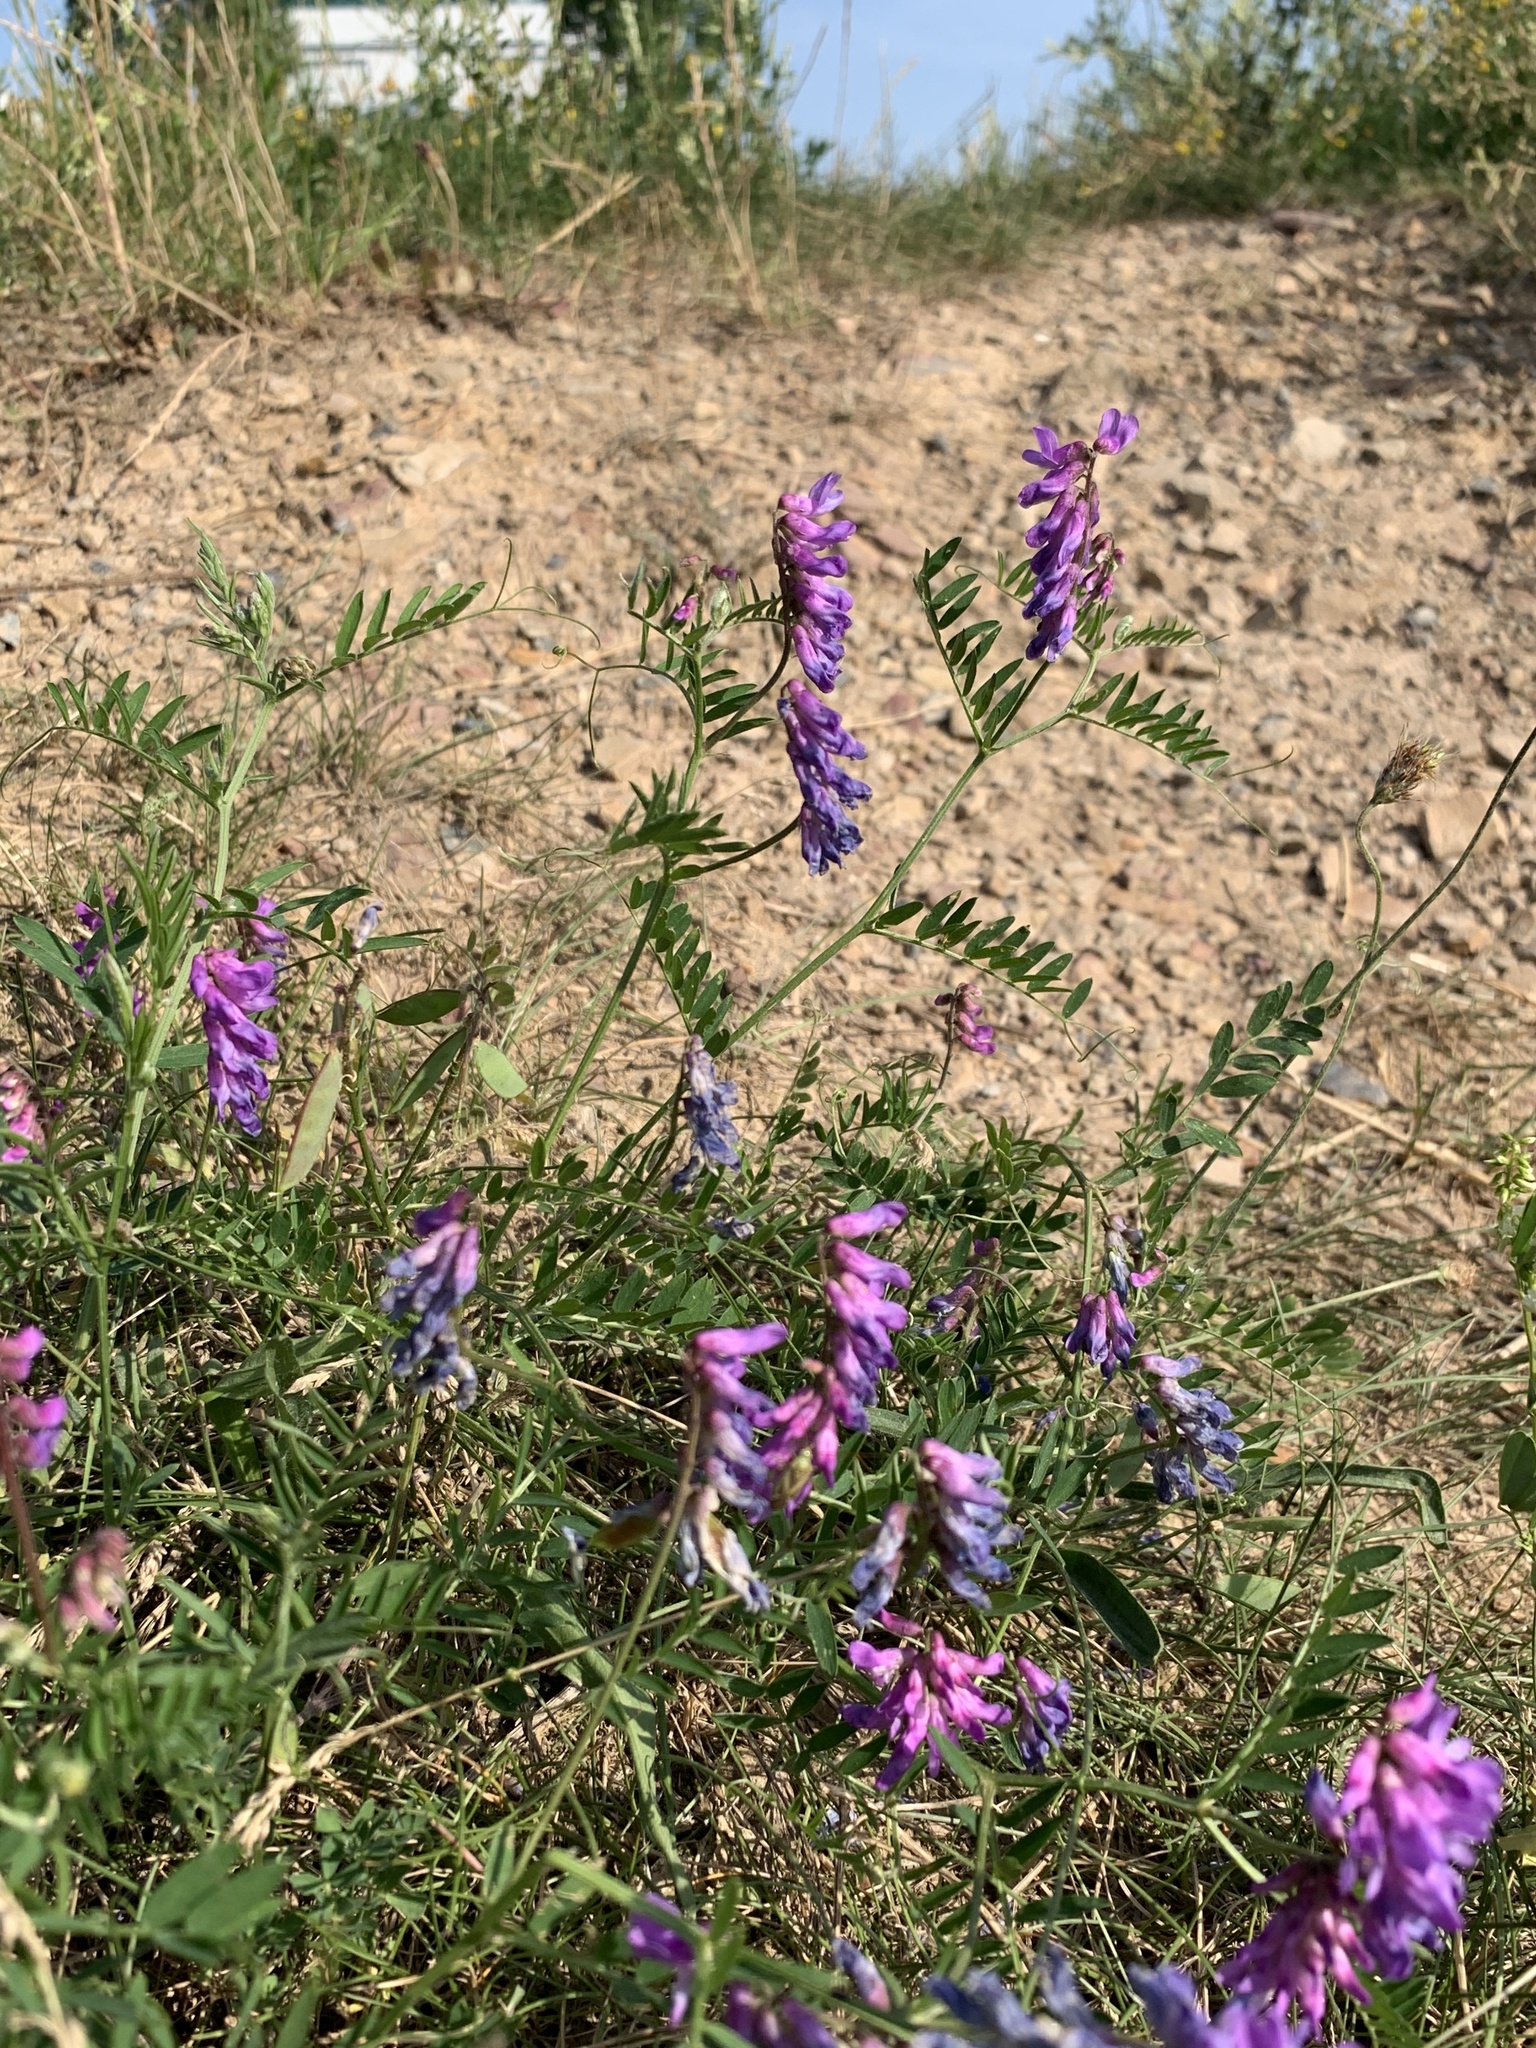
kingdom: Plantae
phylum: Tracheophyta
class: Magnoliopsida
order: Fabales
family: Fabaceae
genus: Vicia
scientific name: Vicia cracca
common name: Bird vetch
